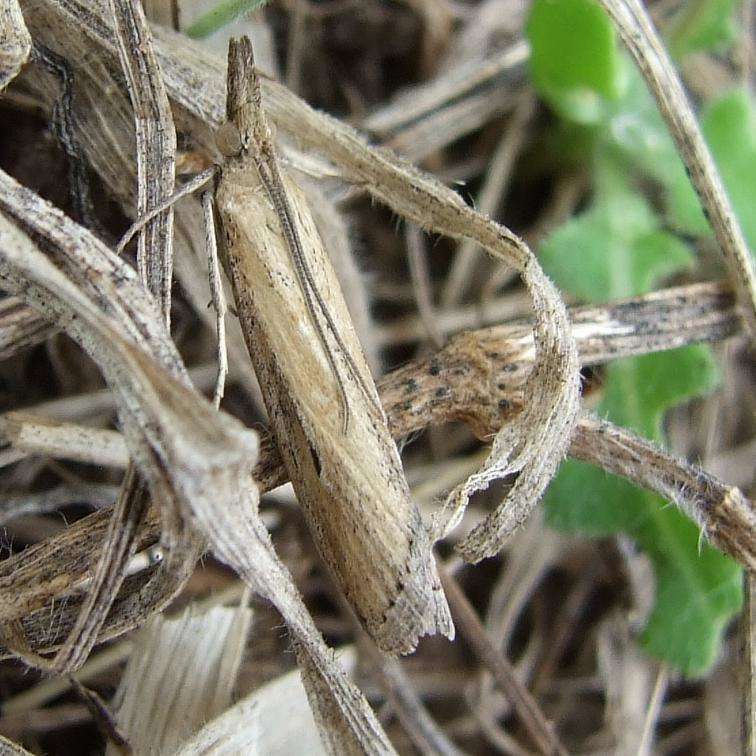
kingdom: Animalia
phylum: Arthropoda
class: Insecta
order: Lepidoptera
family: Pyralidae
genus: Faveria
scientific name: Faveria tritalis
